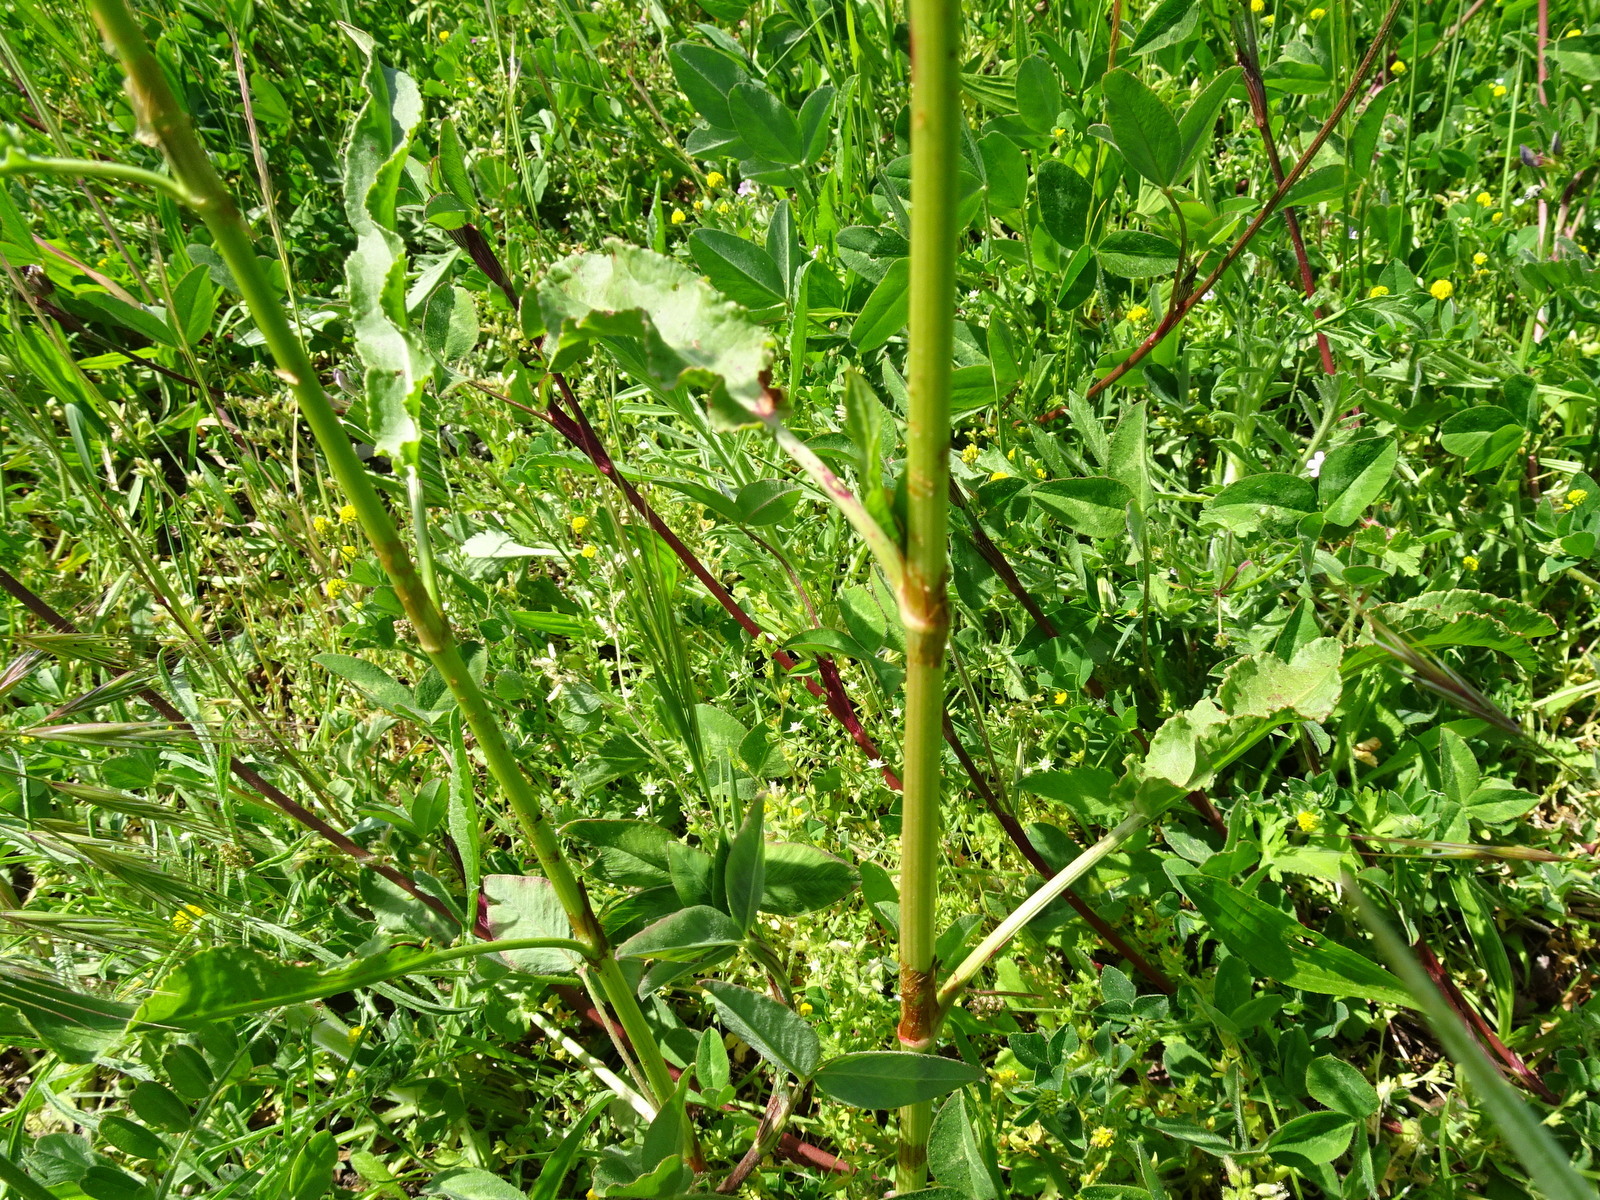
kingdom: Plantae
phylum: Tracheophyta
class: Magnoliopsida
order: Caryophyllales
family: Polygonaceae
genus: Rumex
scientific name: Rumex crispus
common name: Curled dock
